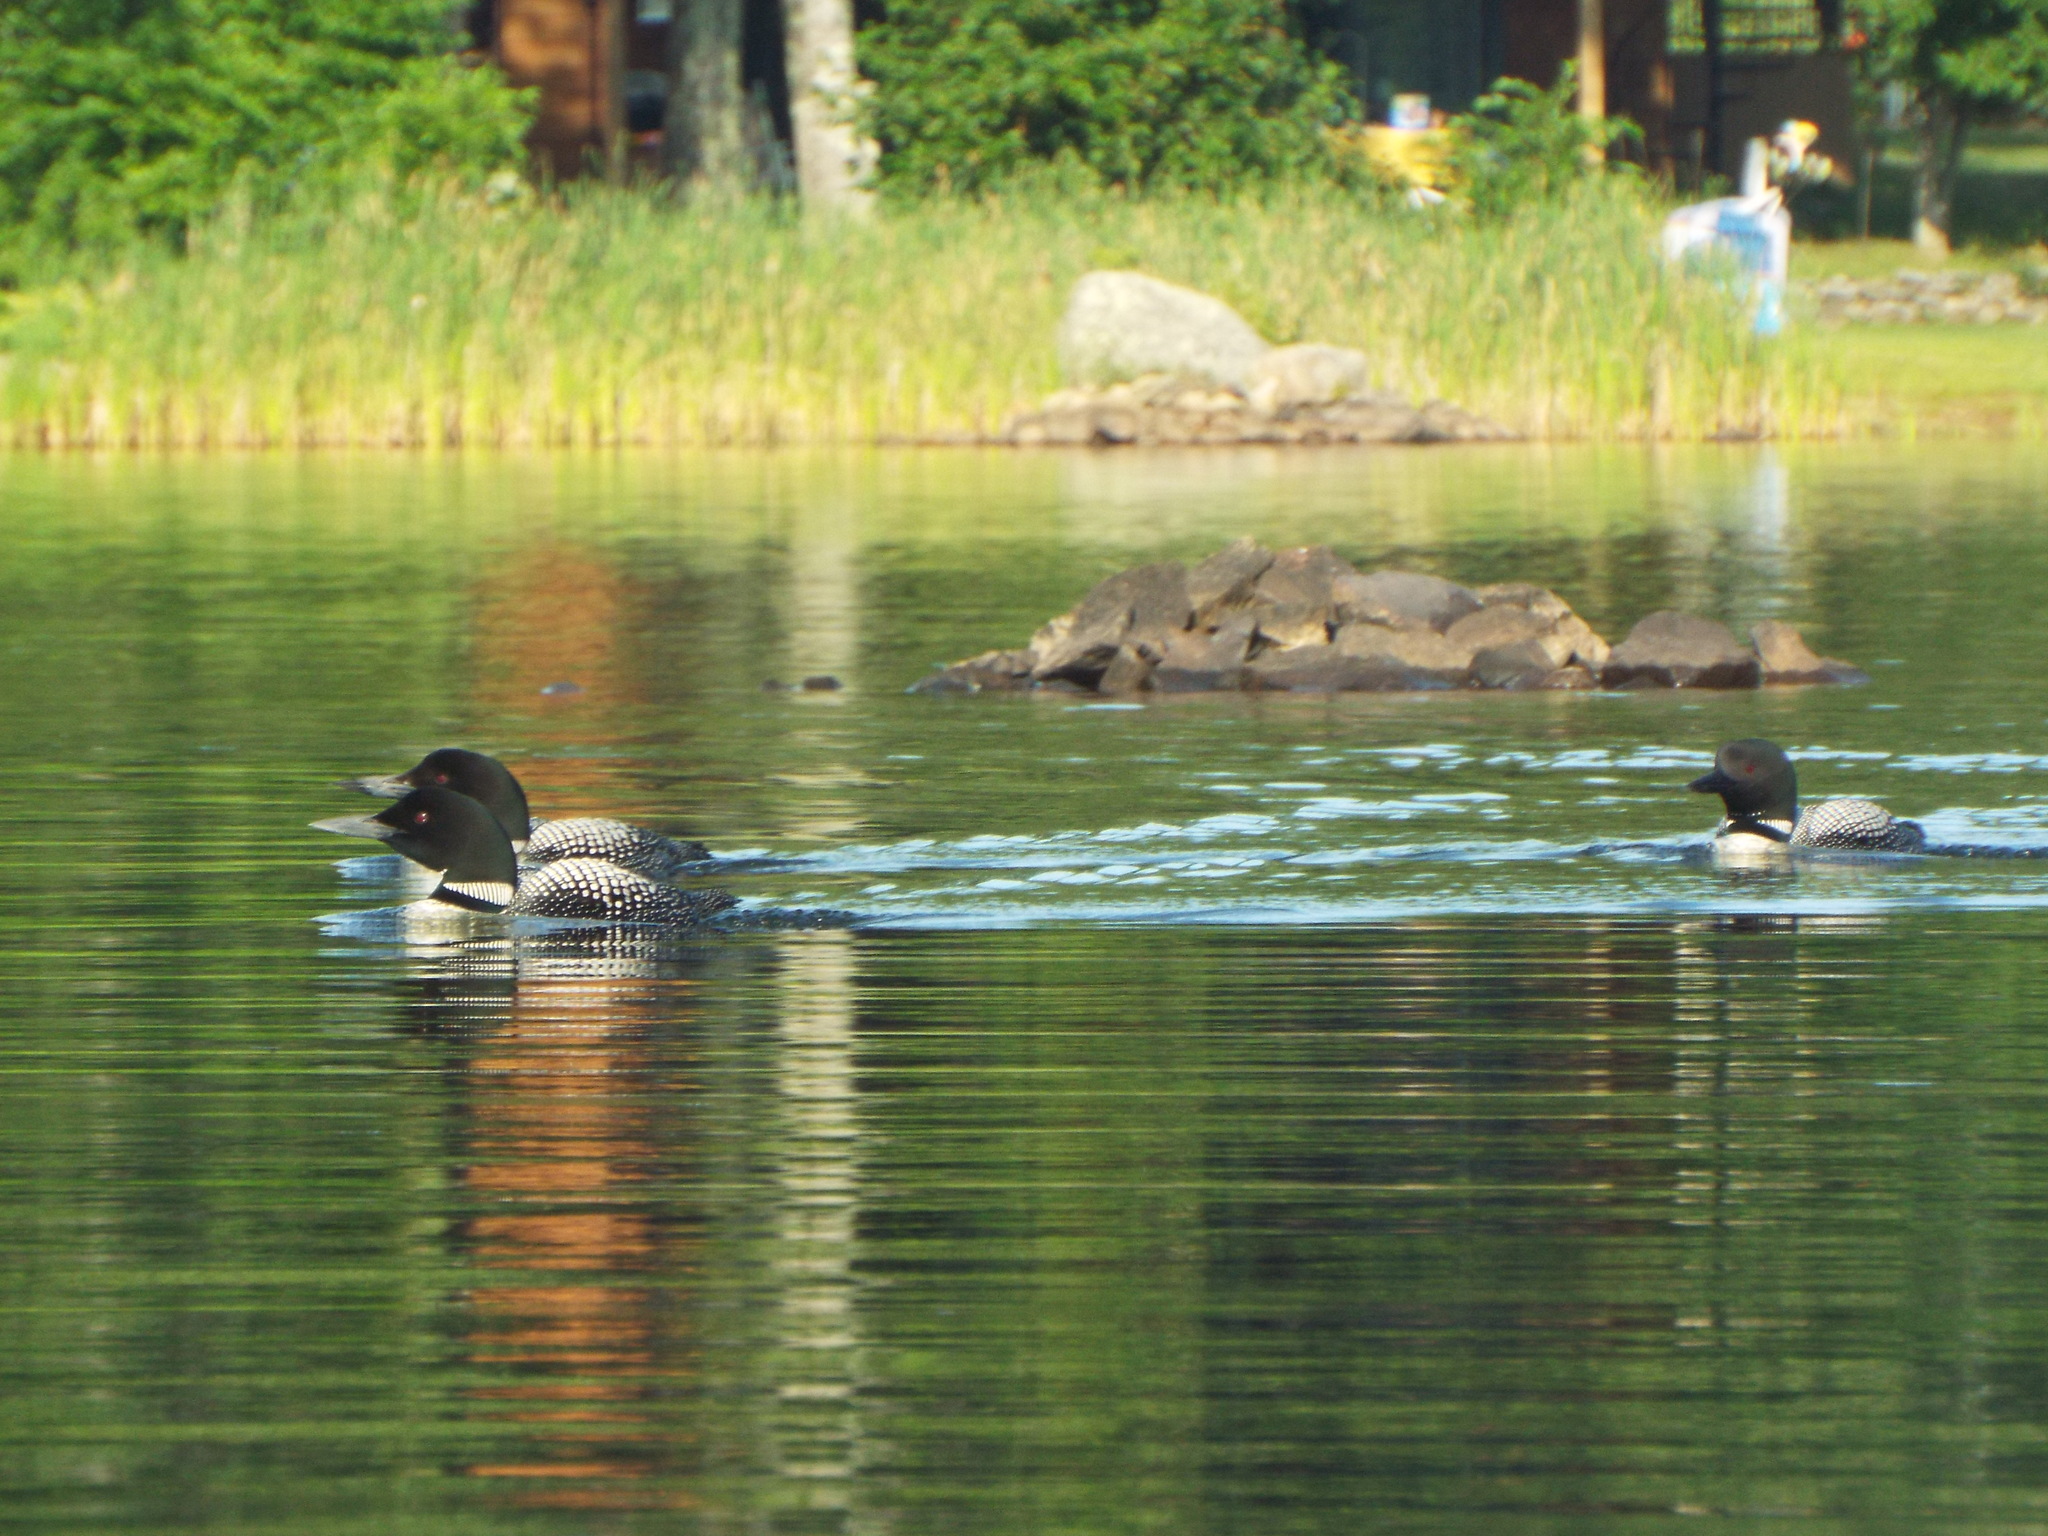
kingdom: Animalia
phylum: Chordata
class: Aves
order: Gaviiformes
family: Gaviidae
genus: Gavia
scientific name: Gavia immer
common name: Common loon
